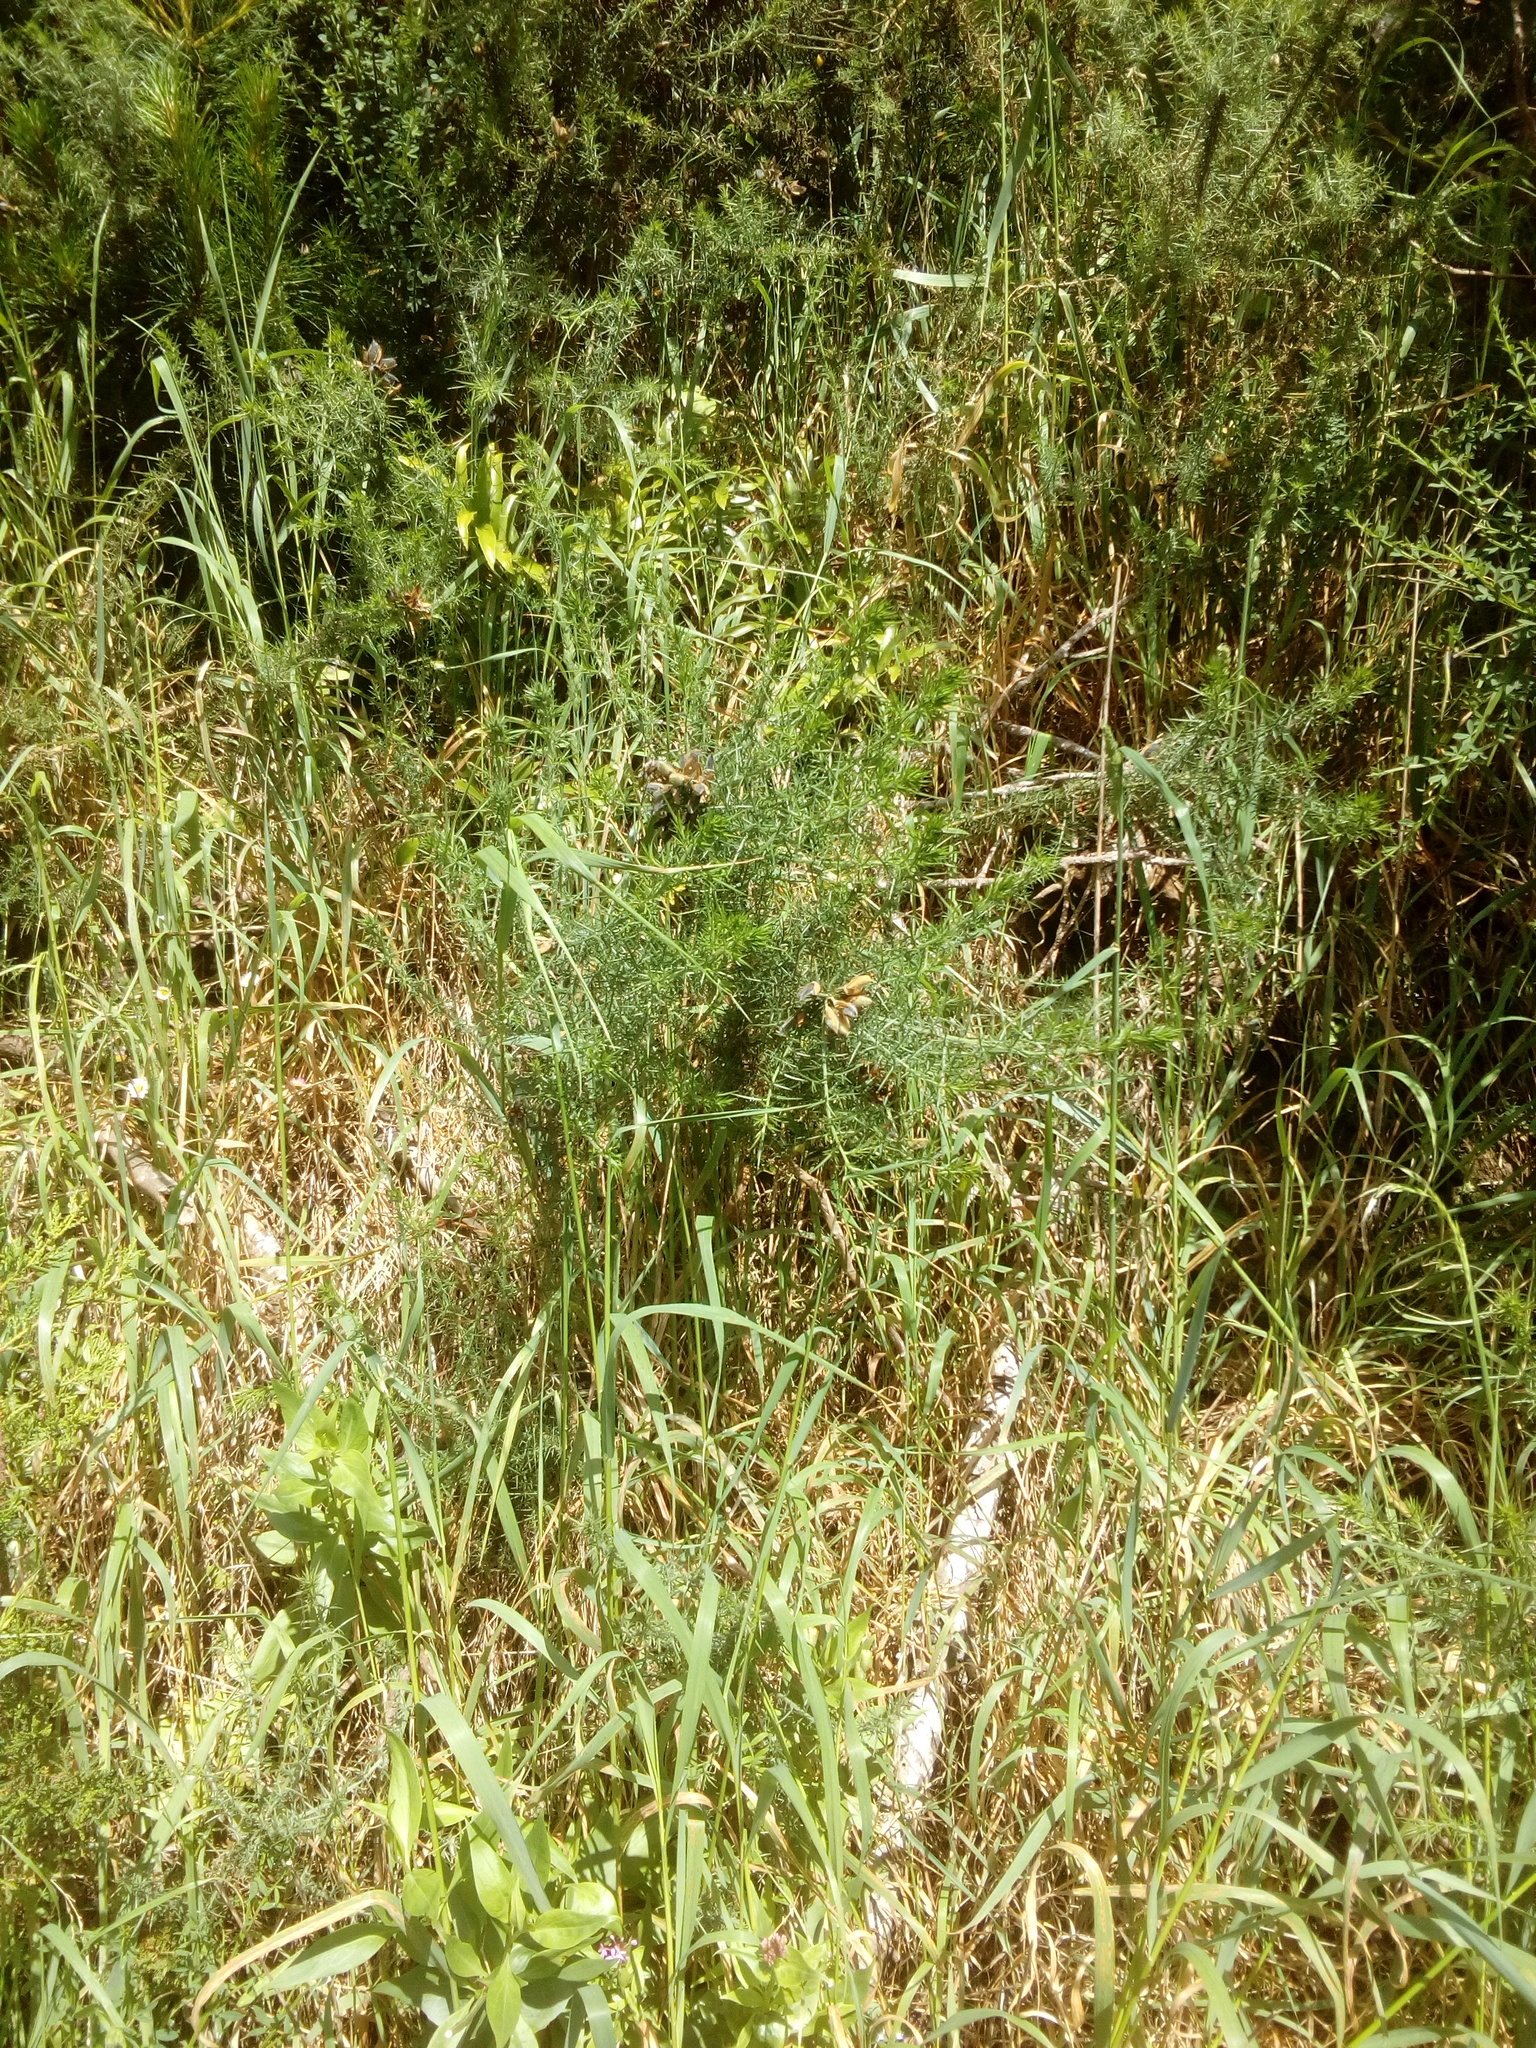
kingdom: Plantae
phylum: Tracheophyta
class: Magnoliopsida
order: Fabales
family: Fabaceae
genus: Ulex
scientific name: Ulex europaeus
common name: Common gorse
